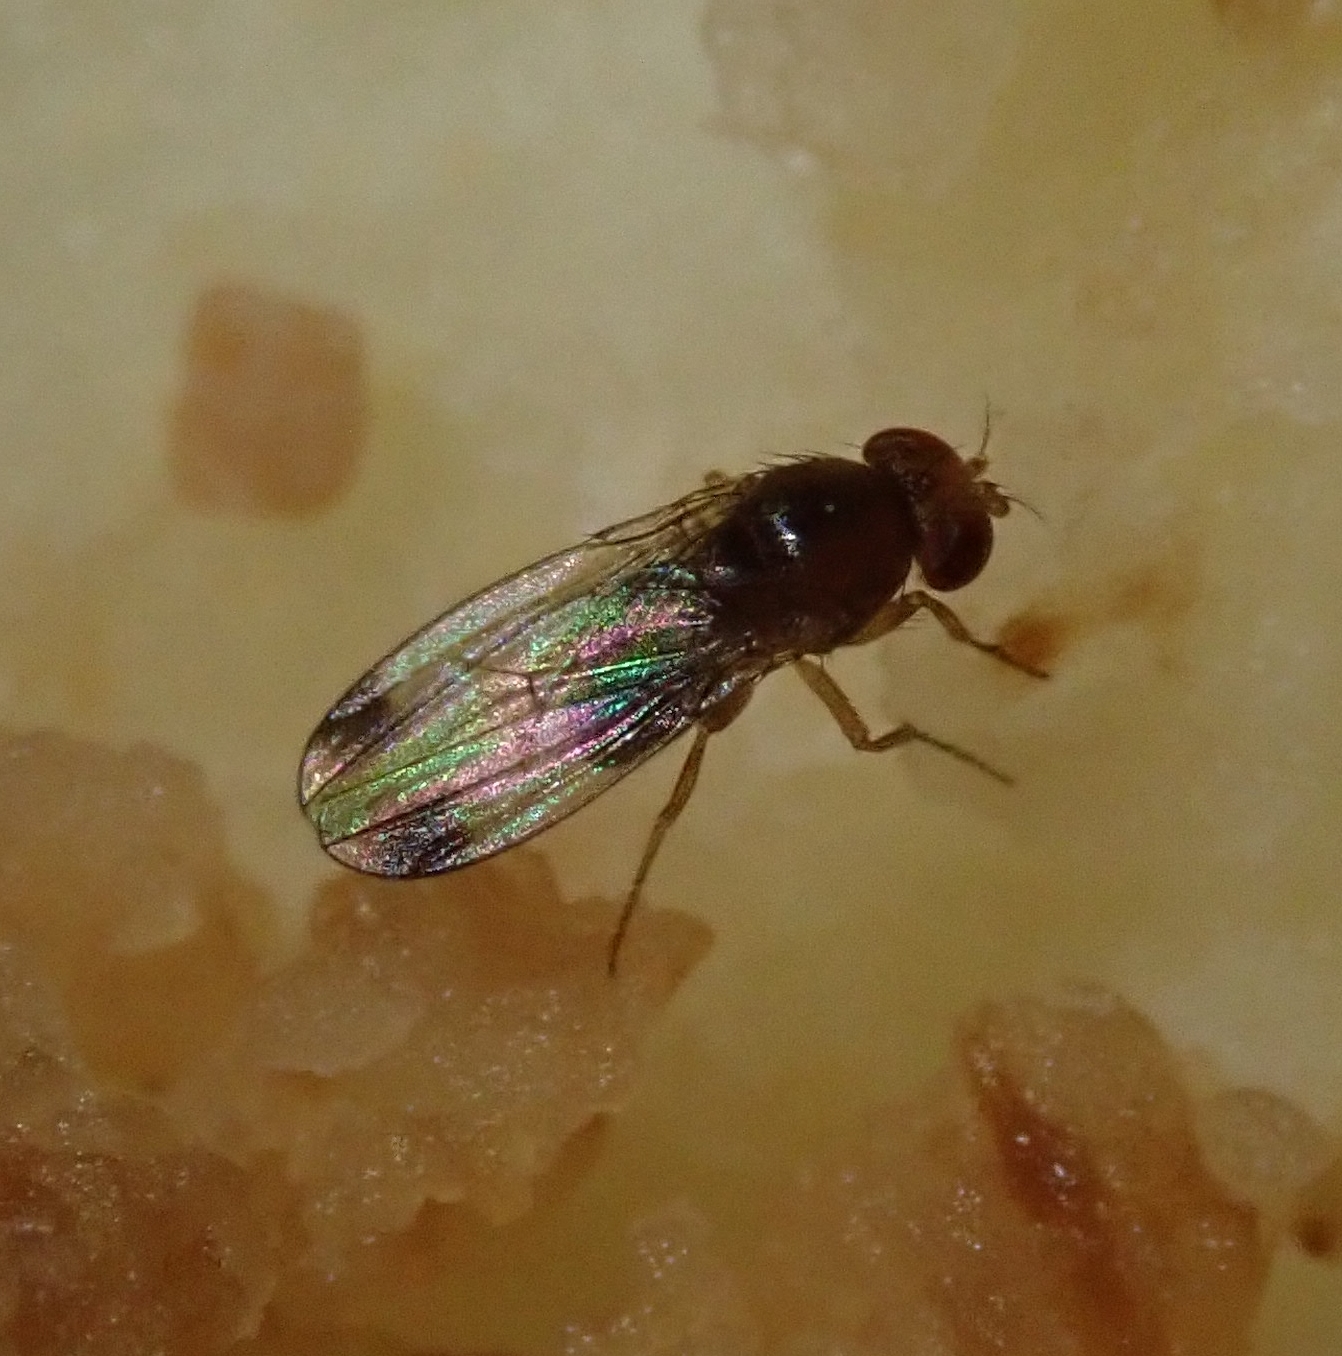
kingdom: Animalia
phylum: Arthropoda
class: Insecta
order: Diptera
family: Drosophilidae
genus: Drosophila
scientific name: Drosophila suzukii
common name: Spotted-wing drosophila
